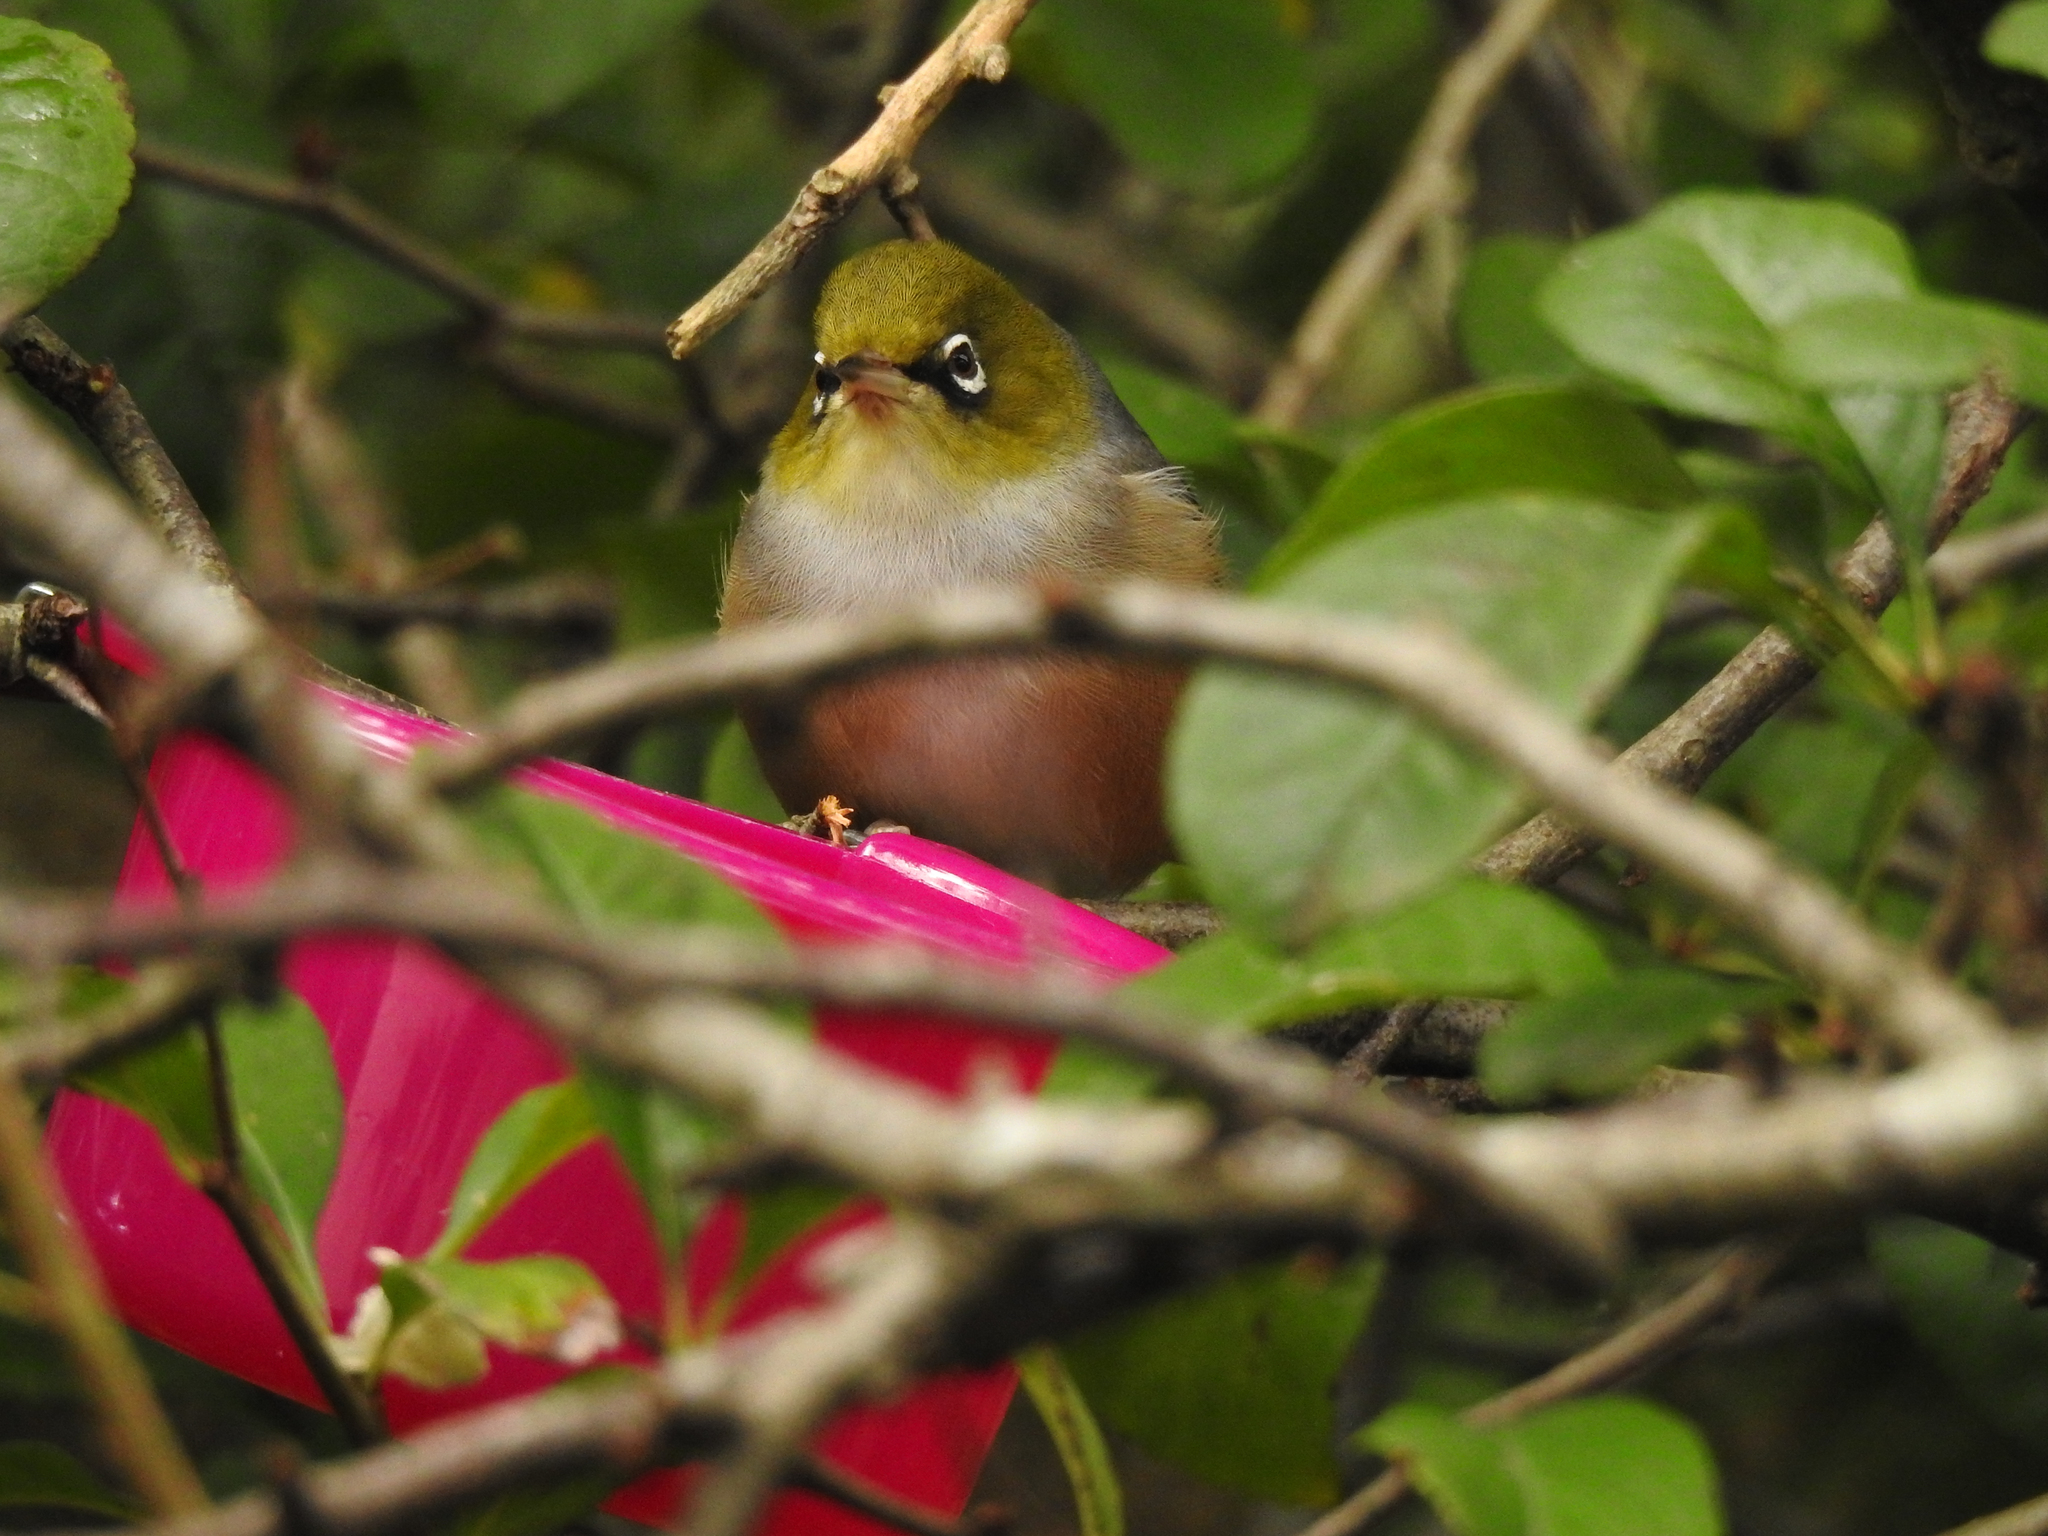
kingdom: Animalia
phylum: Chordata
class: Aves
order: Passeriformes
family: Zosteropidae
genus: Zosterops
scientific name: Zosterops lateralis
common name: Silvereye
